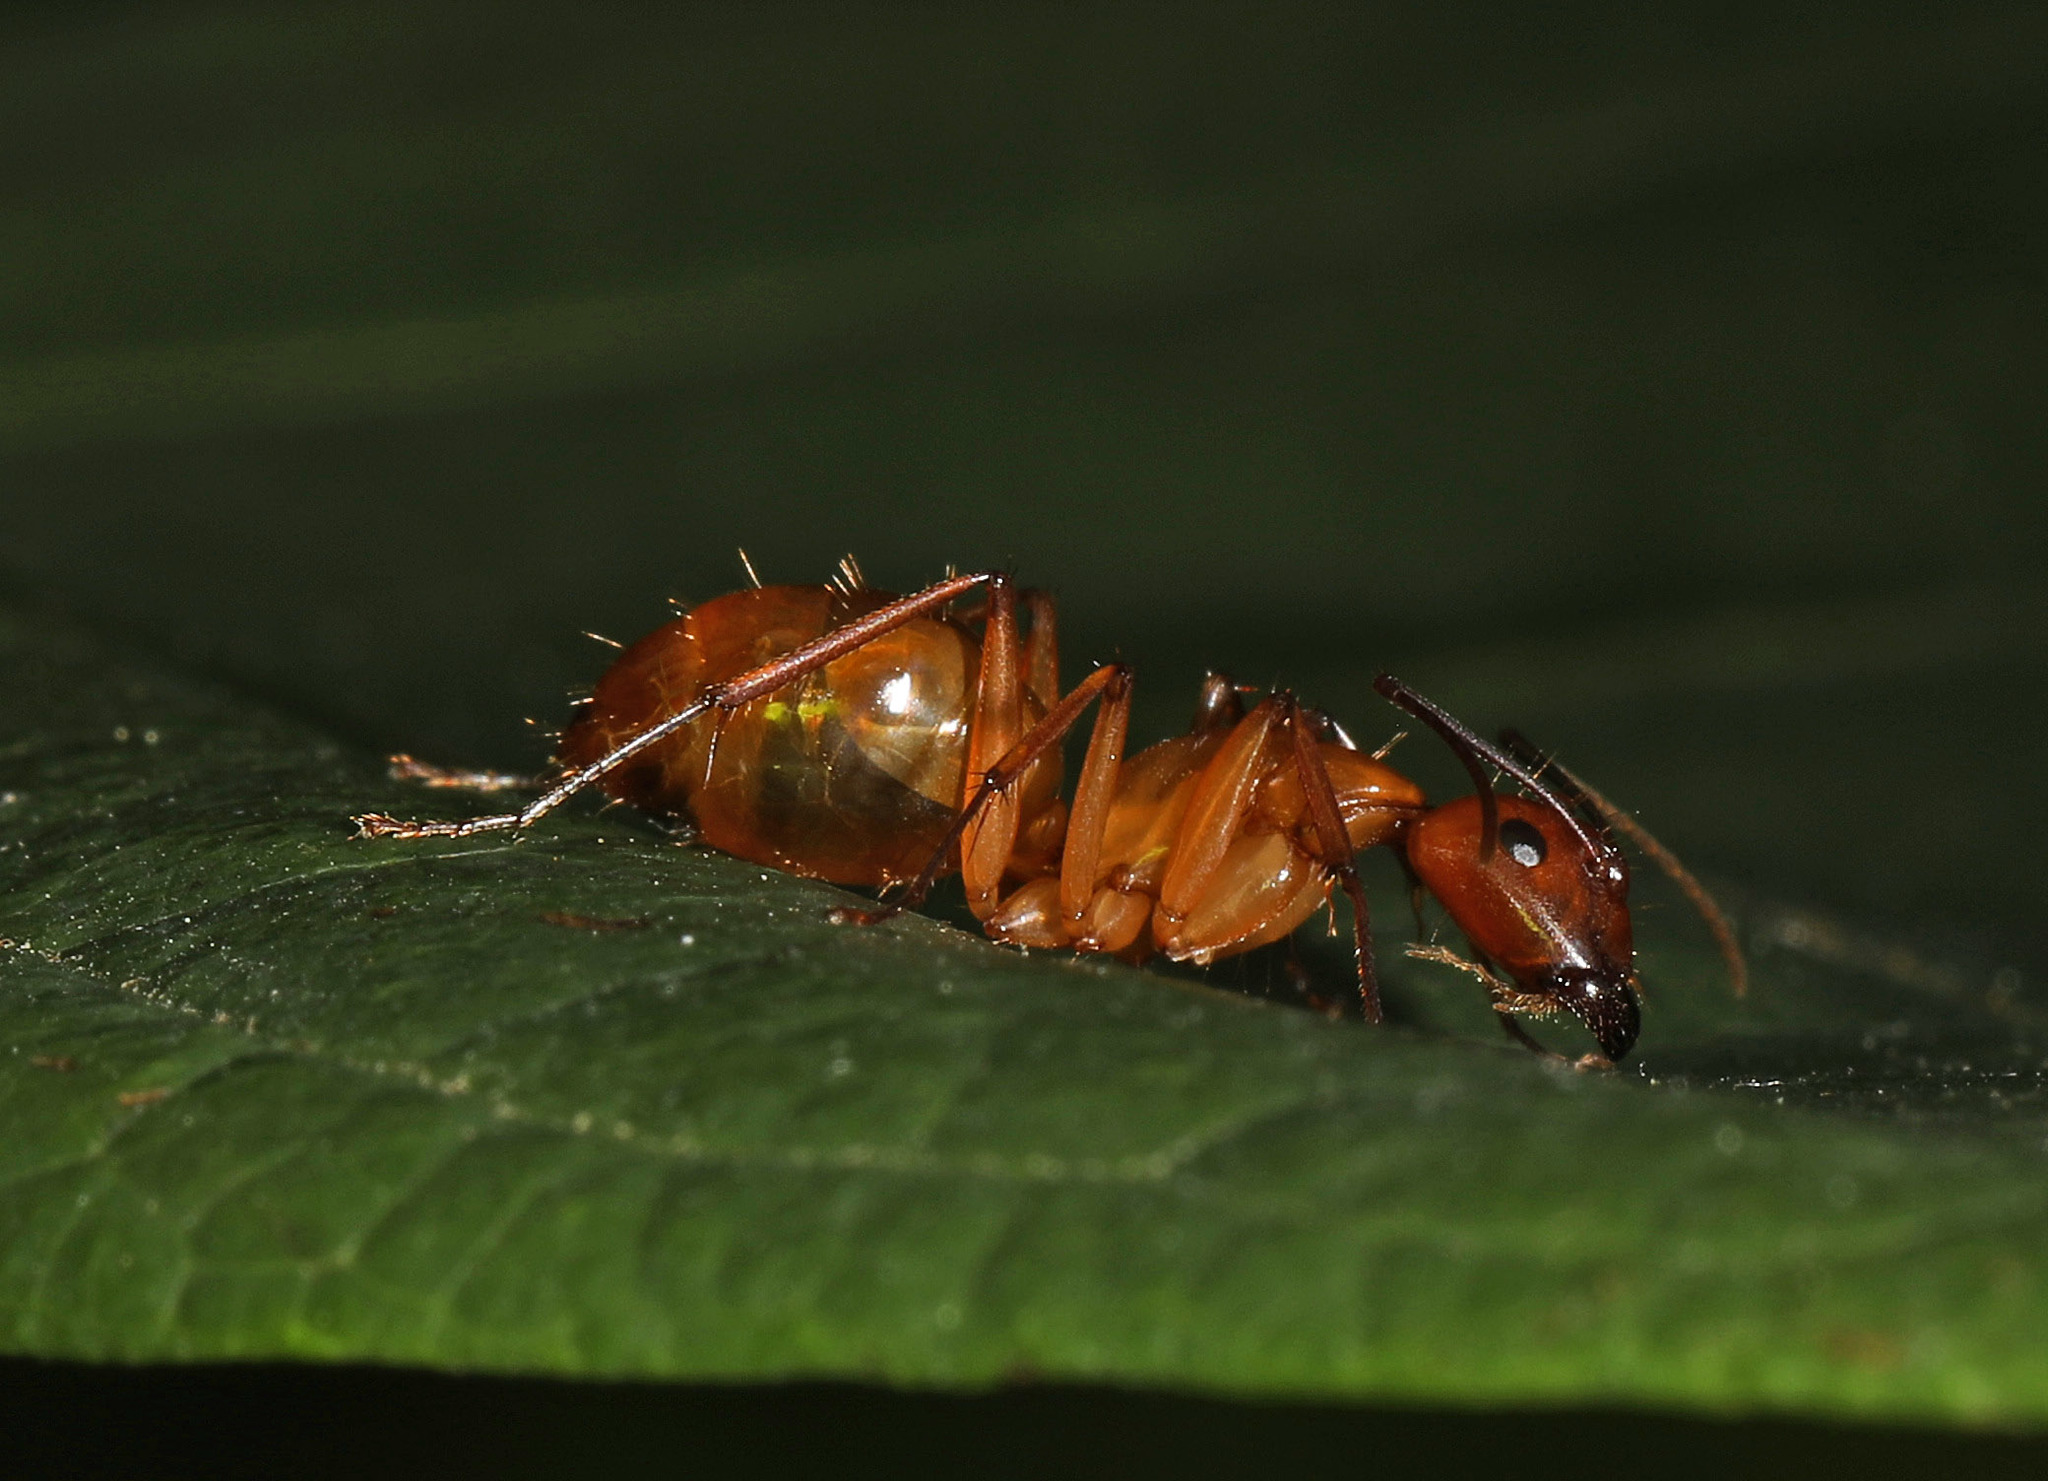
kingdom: Animalia
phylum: Arthropoda
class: Insecta
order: Hymenoptera
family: Formicidae
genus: Camponotus
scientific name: Camponotus castaneus
